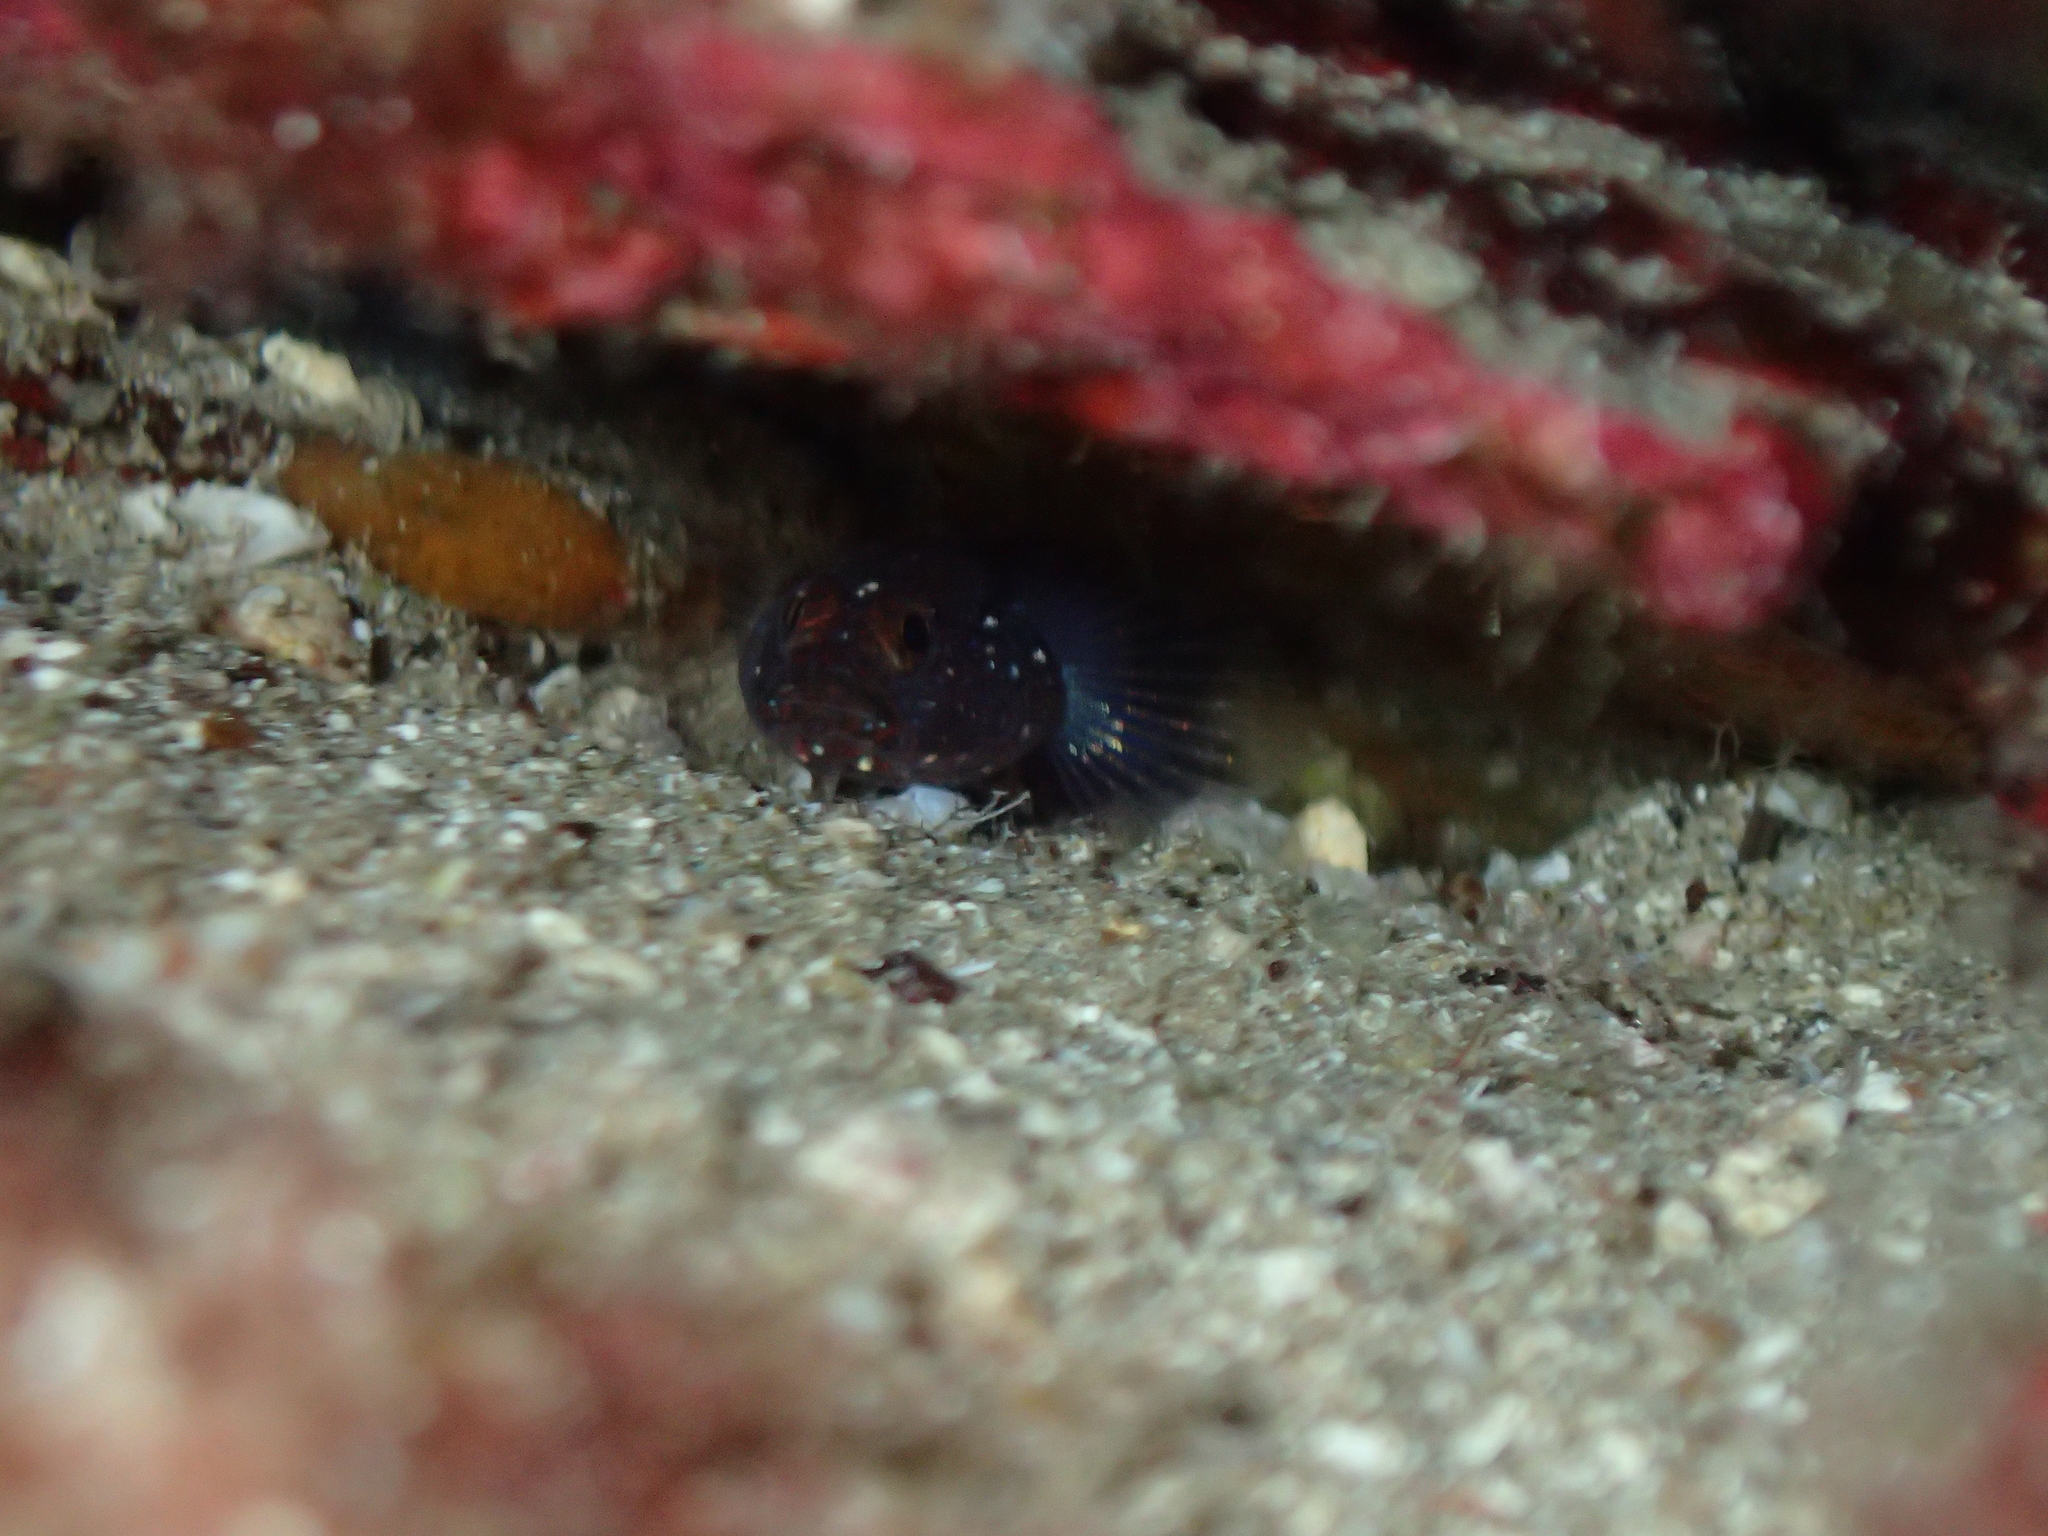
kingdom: Animalia
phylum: Chordata
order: Perciformes
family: Gobiidae
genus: Vanneaugobius
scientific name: Vanneaugobius canariensis
